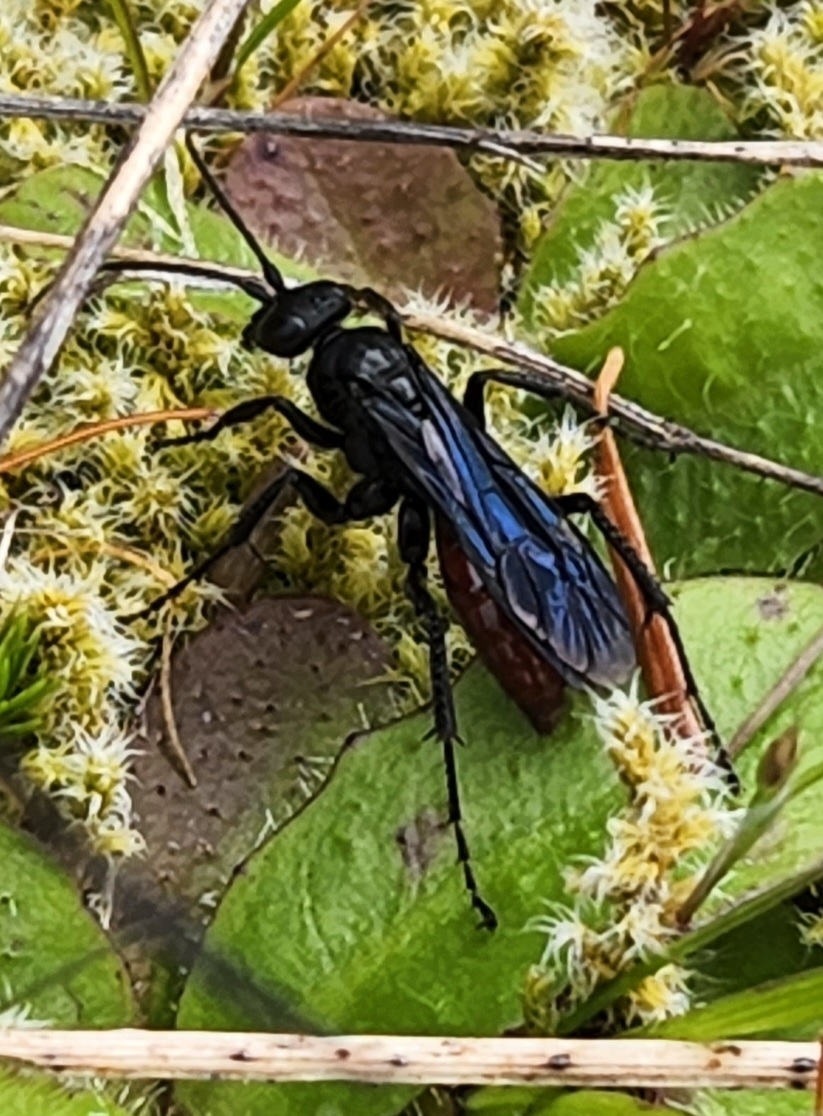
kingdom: Animalia
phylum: Arthropoda
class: Insecta
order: Hymenoptera
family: Pompilidae
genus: Priocnemis
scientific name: Priocnemis oregona
